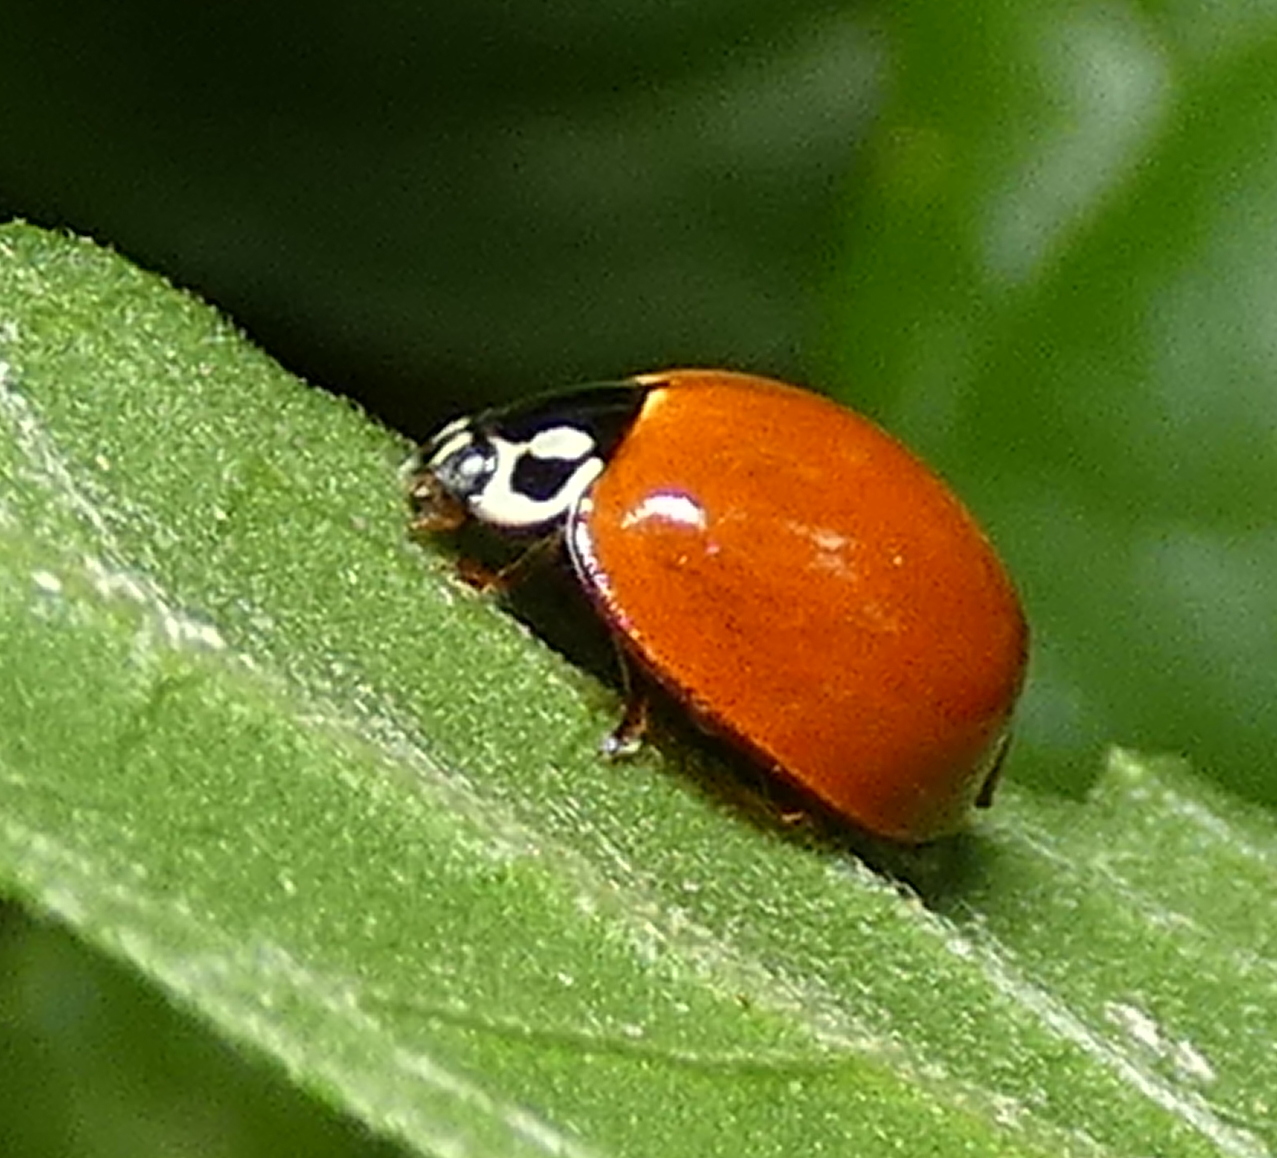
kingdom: Animalia
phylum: Arthropoda
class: Insecta
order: Coleoptera
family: Coccinellidae
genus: Cycloneda
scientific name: Cycloneda sanguinea
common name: Ladybird beetle
